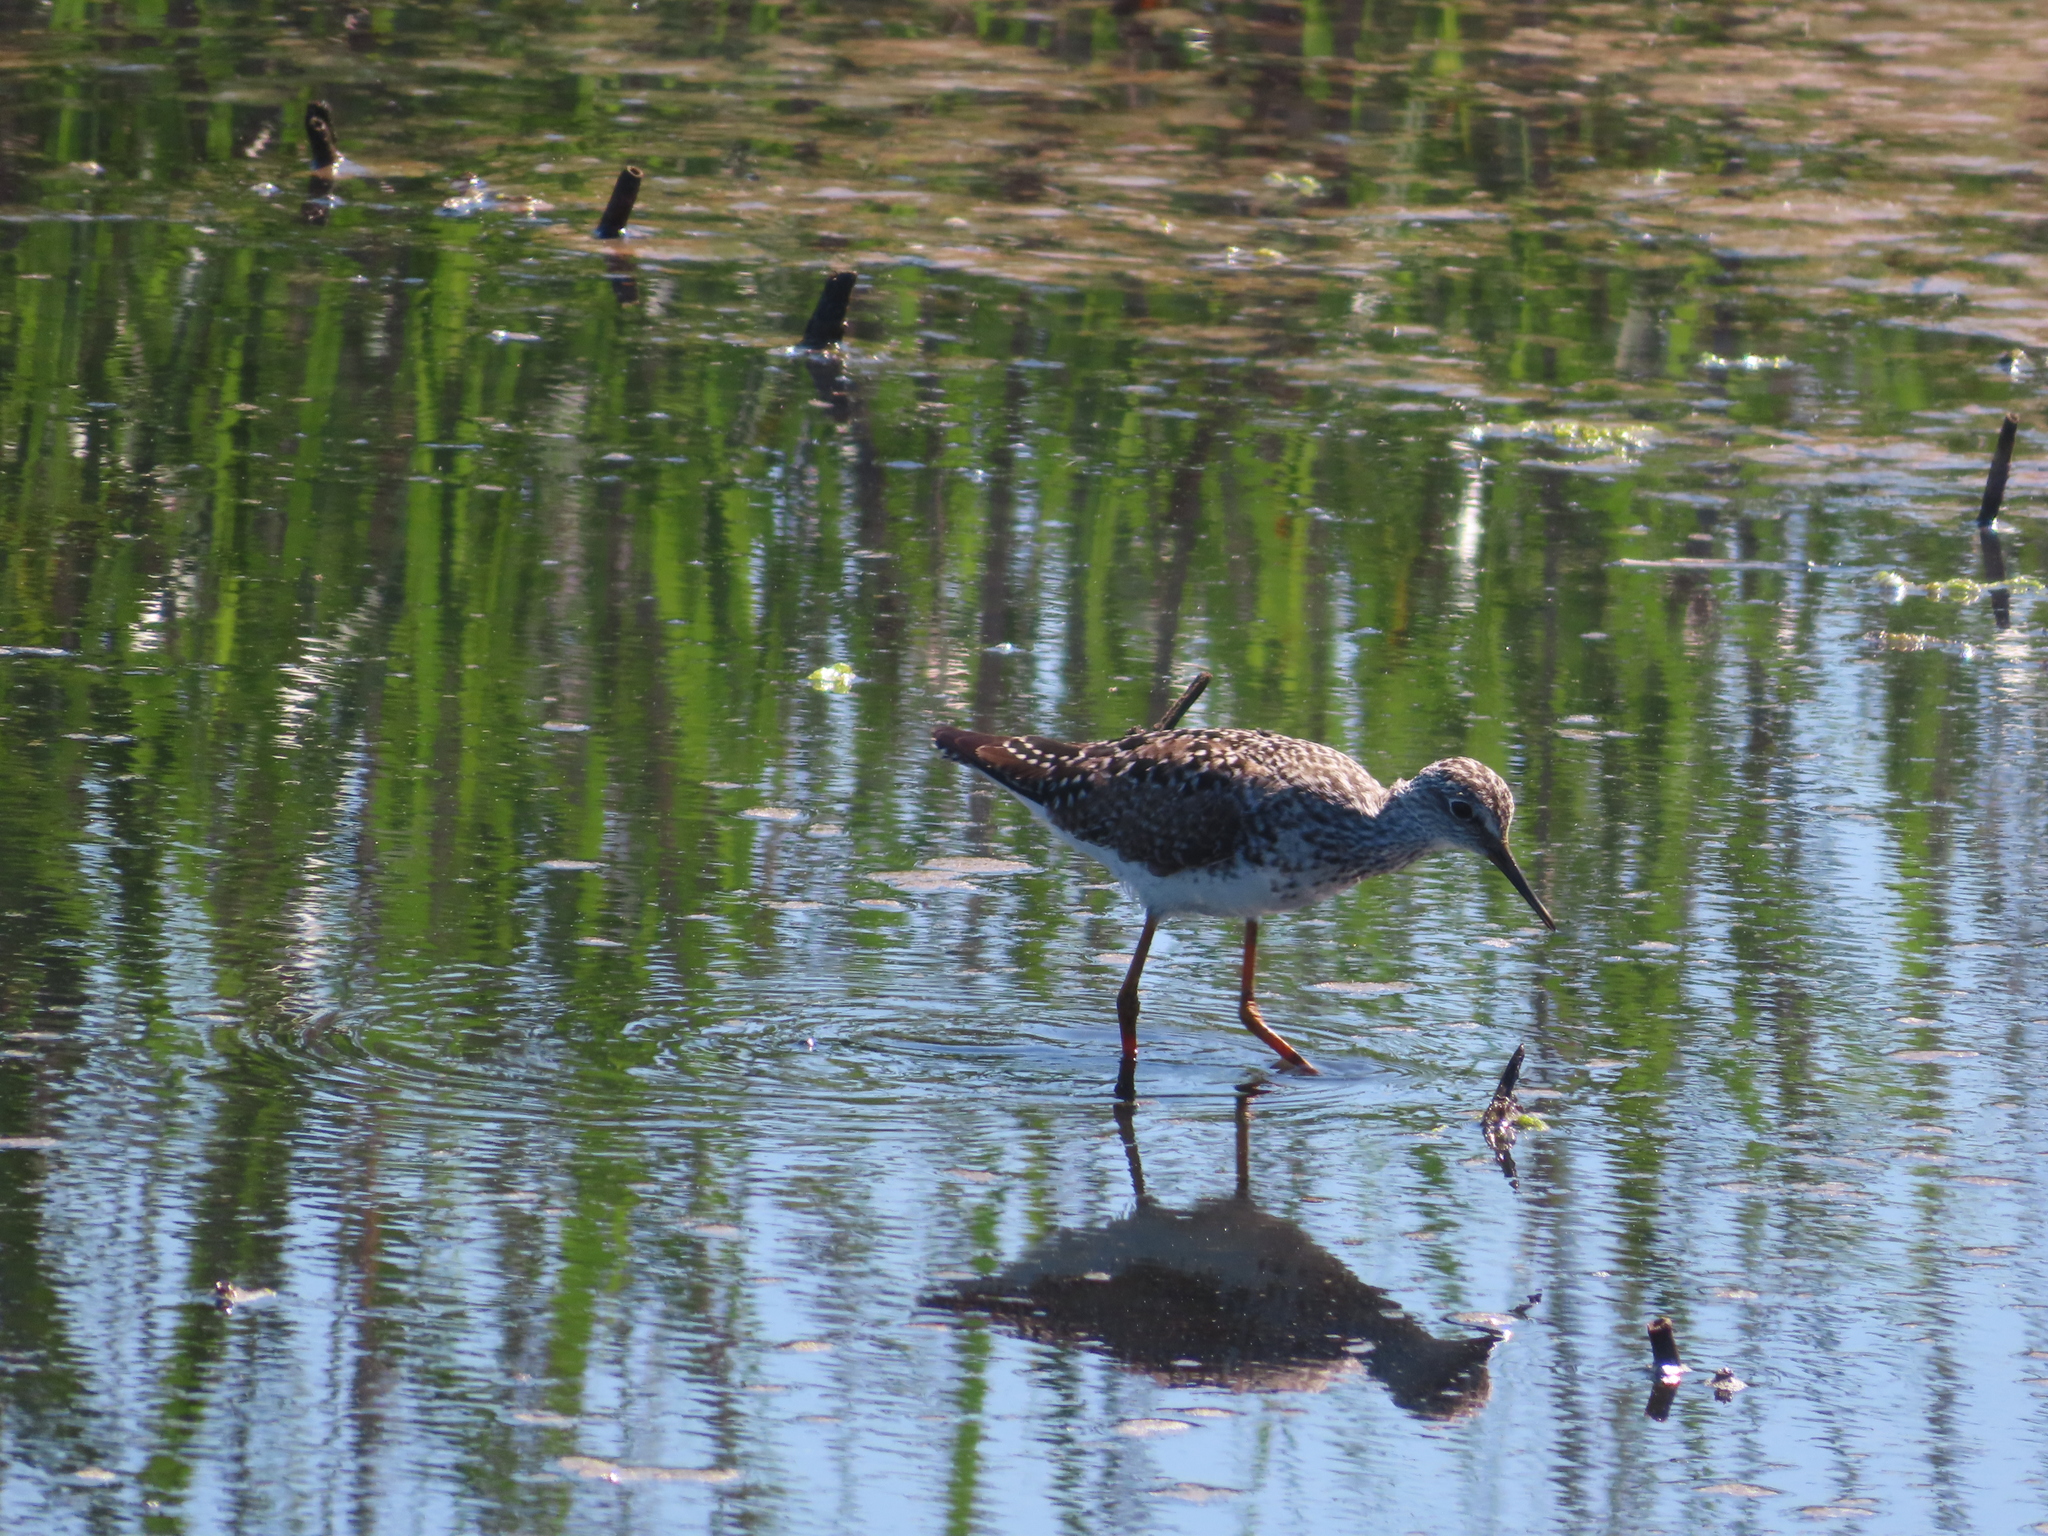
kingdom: Animalia
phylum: Chordata
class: Aves
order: Charadriiformes
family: Scolopacidae
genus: Tringa
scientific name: Tringa flavipes
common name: Lesser yellowlegs
